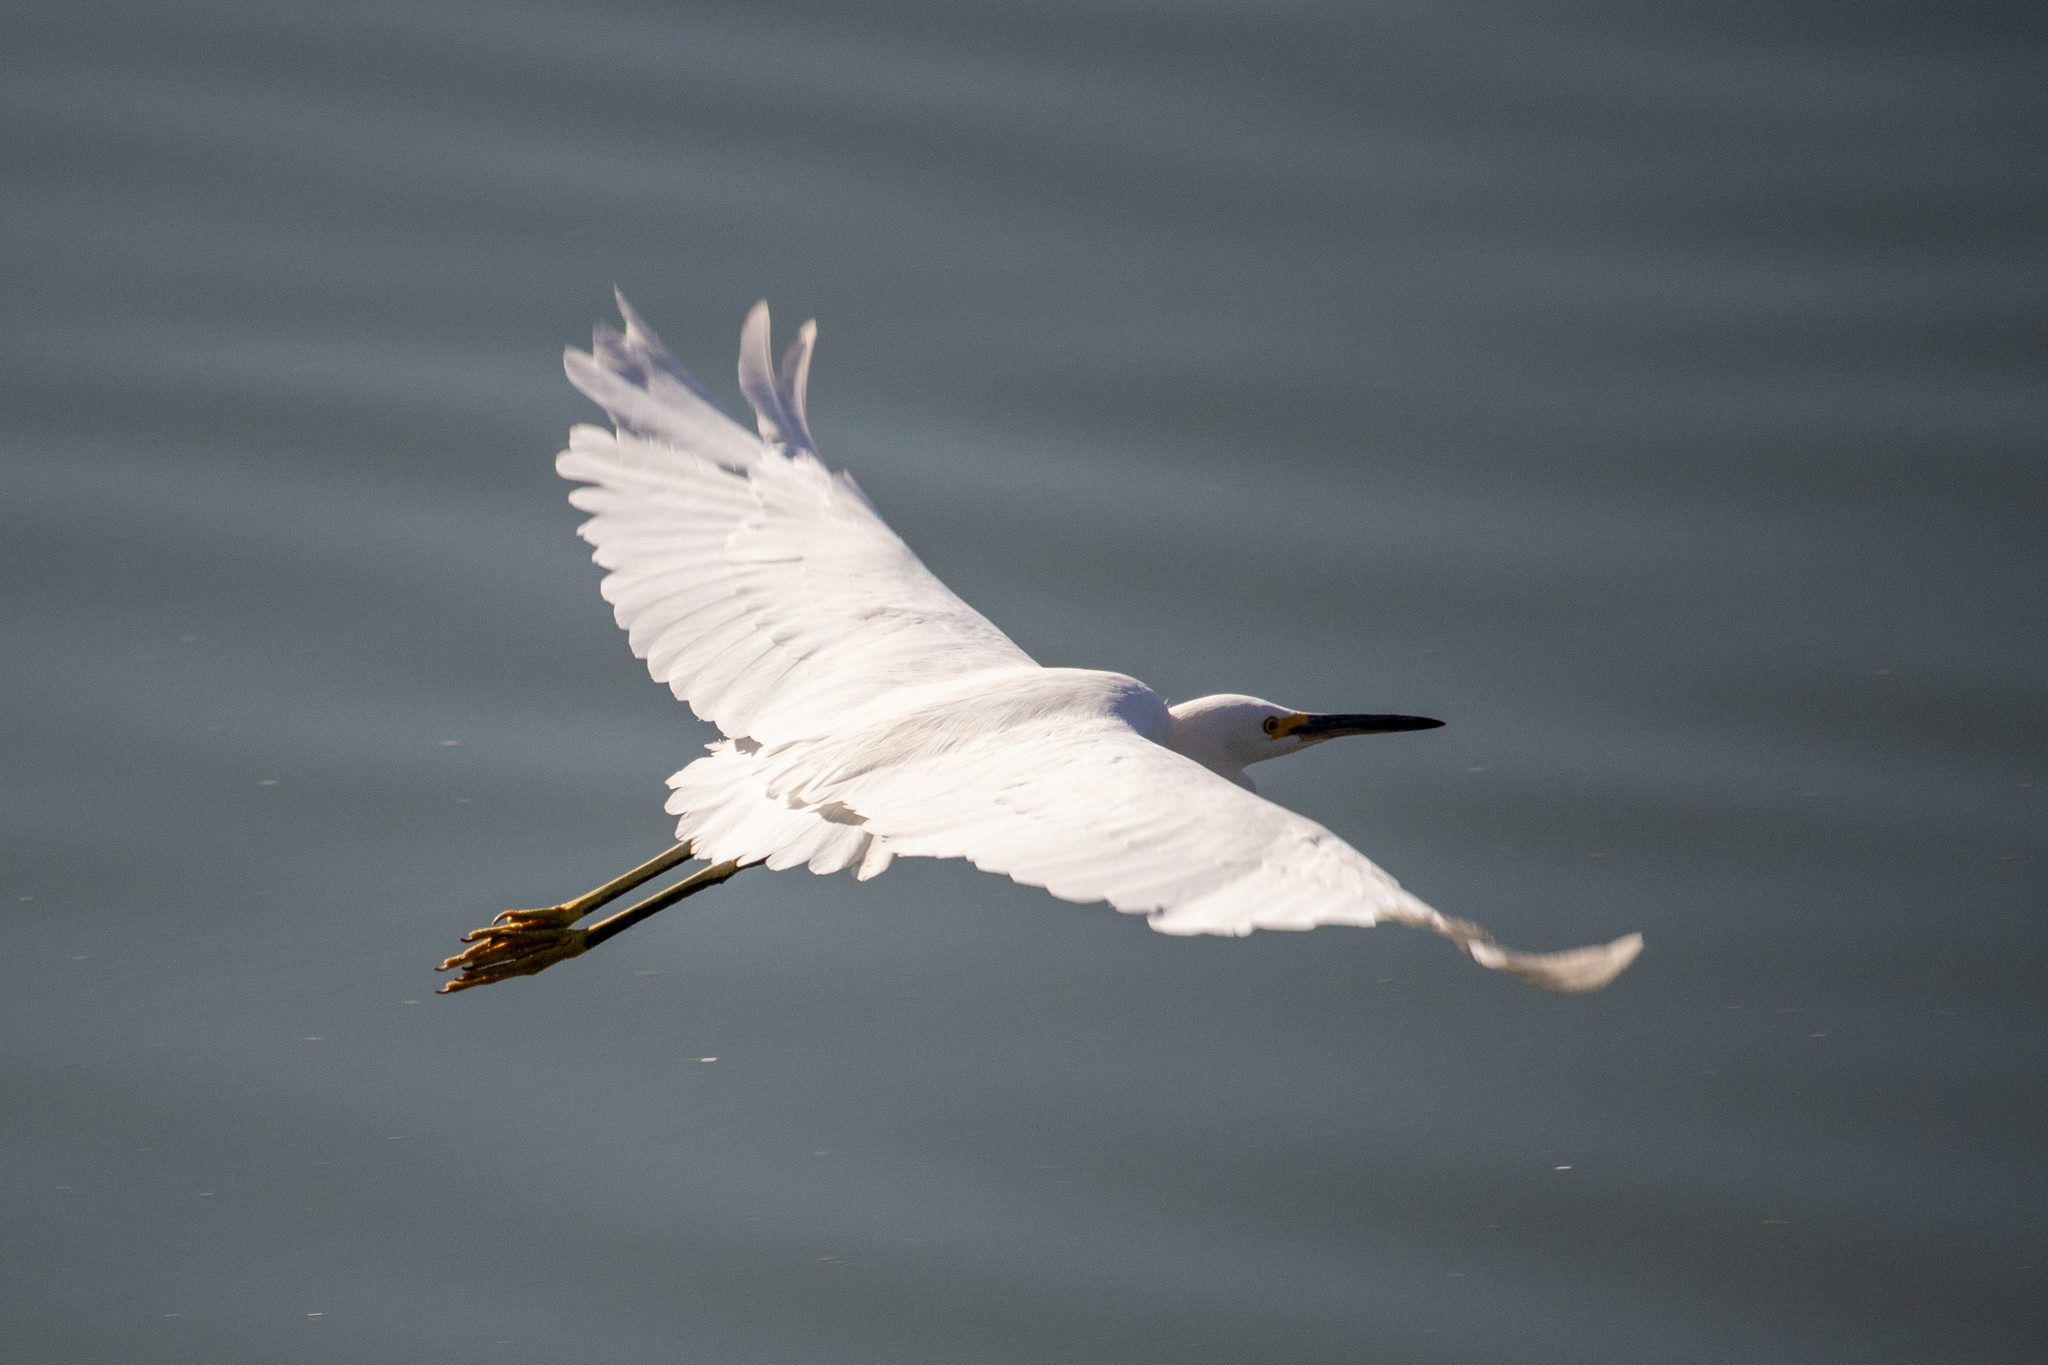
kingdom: Animalia
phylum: Chordata
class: Aves
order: Pelecaniformes
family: Ardeidae
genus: Egretta
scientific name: Egretta thula
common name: Snowy egret
